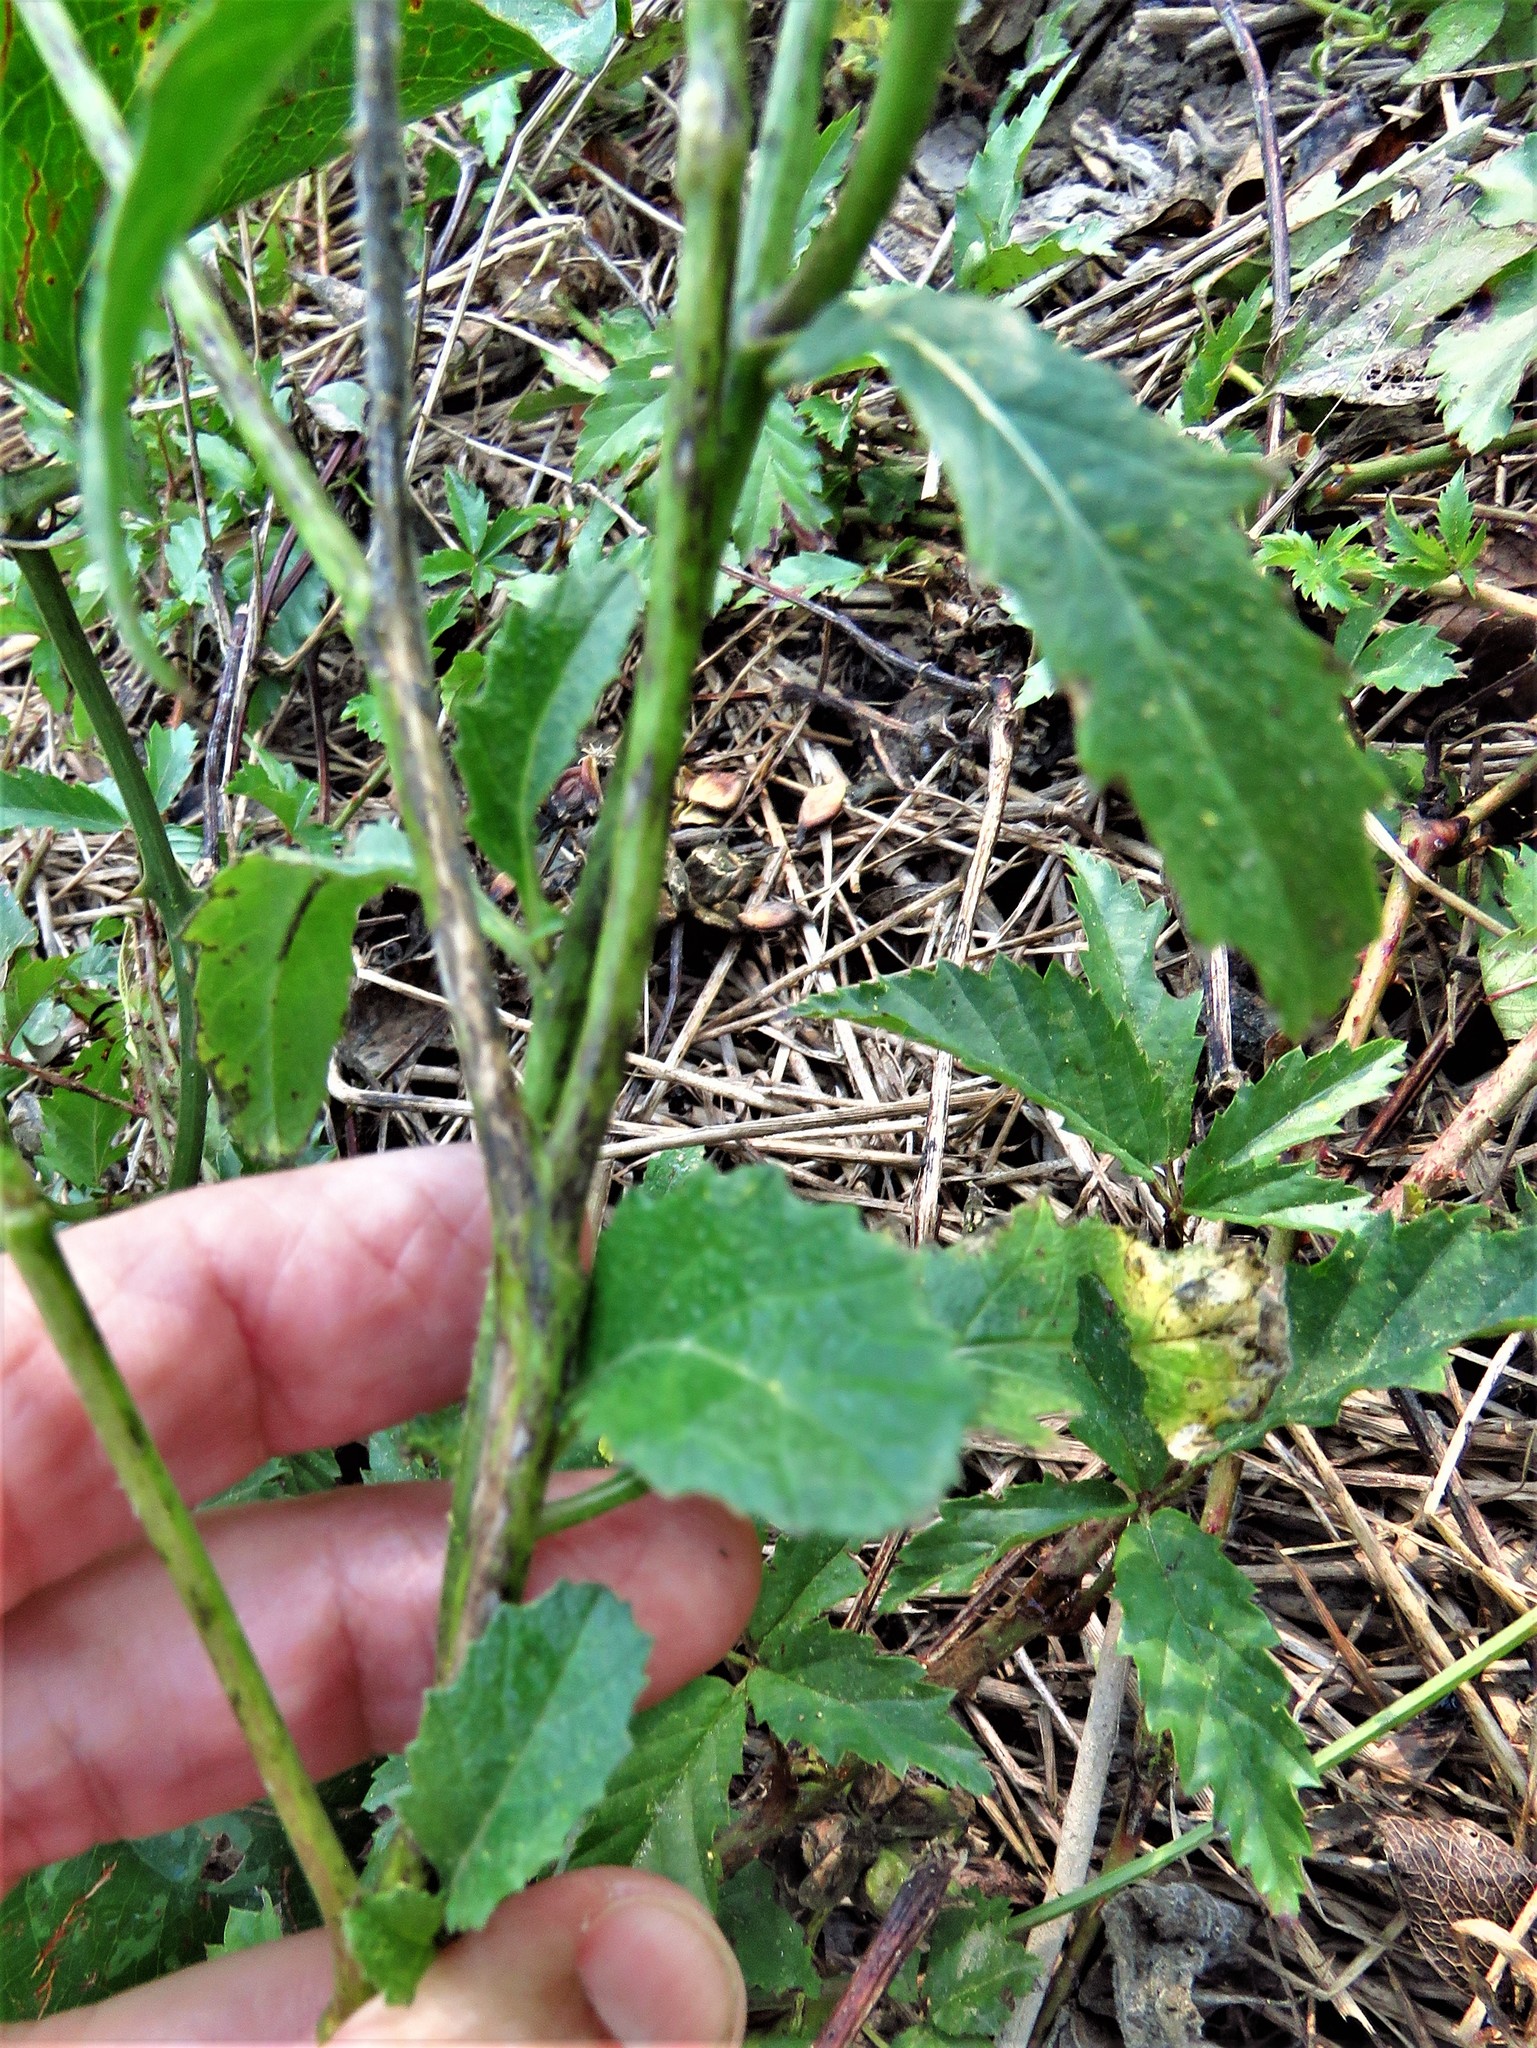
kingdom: Plantae
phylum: Tracheophyta
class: Magnoliopsida
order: Brassicales
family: Brassicaceae
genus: Rapistrum
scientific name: Rapistrum rugosum
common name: Annual bastardcabbage
